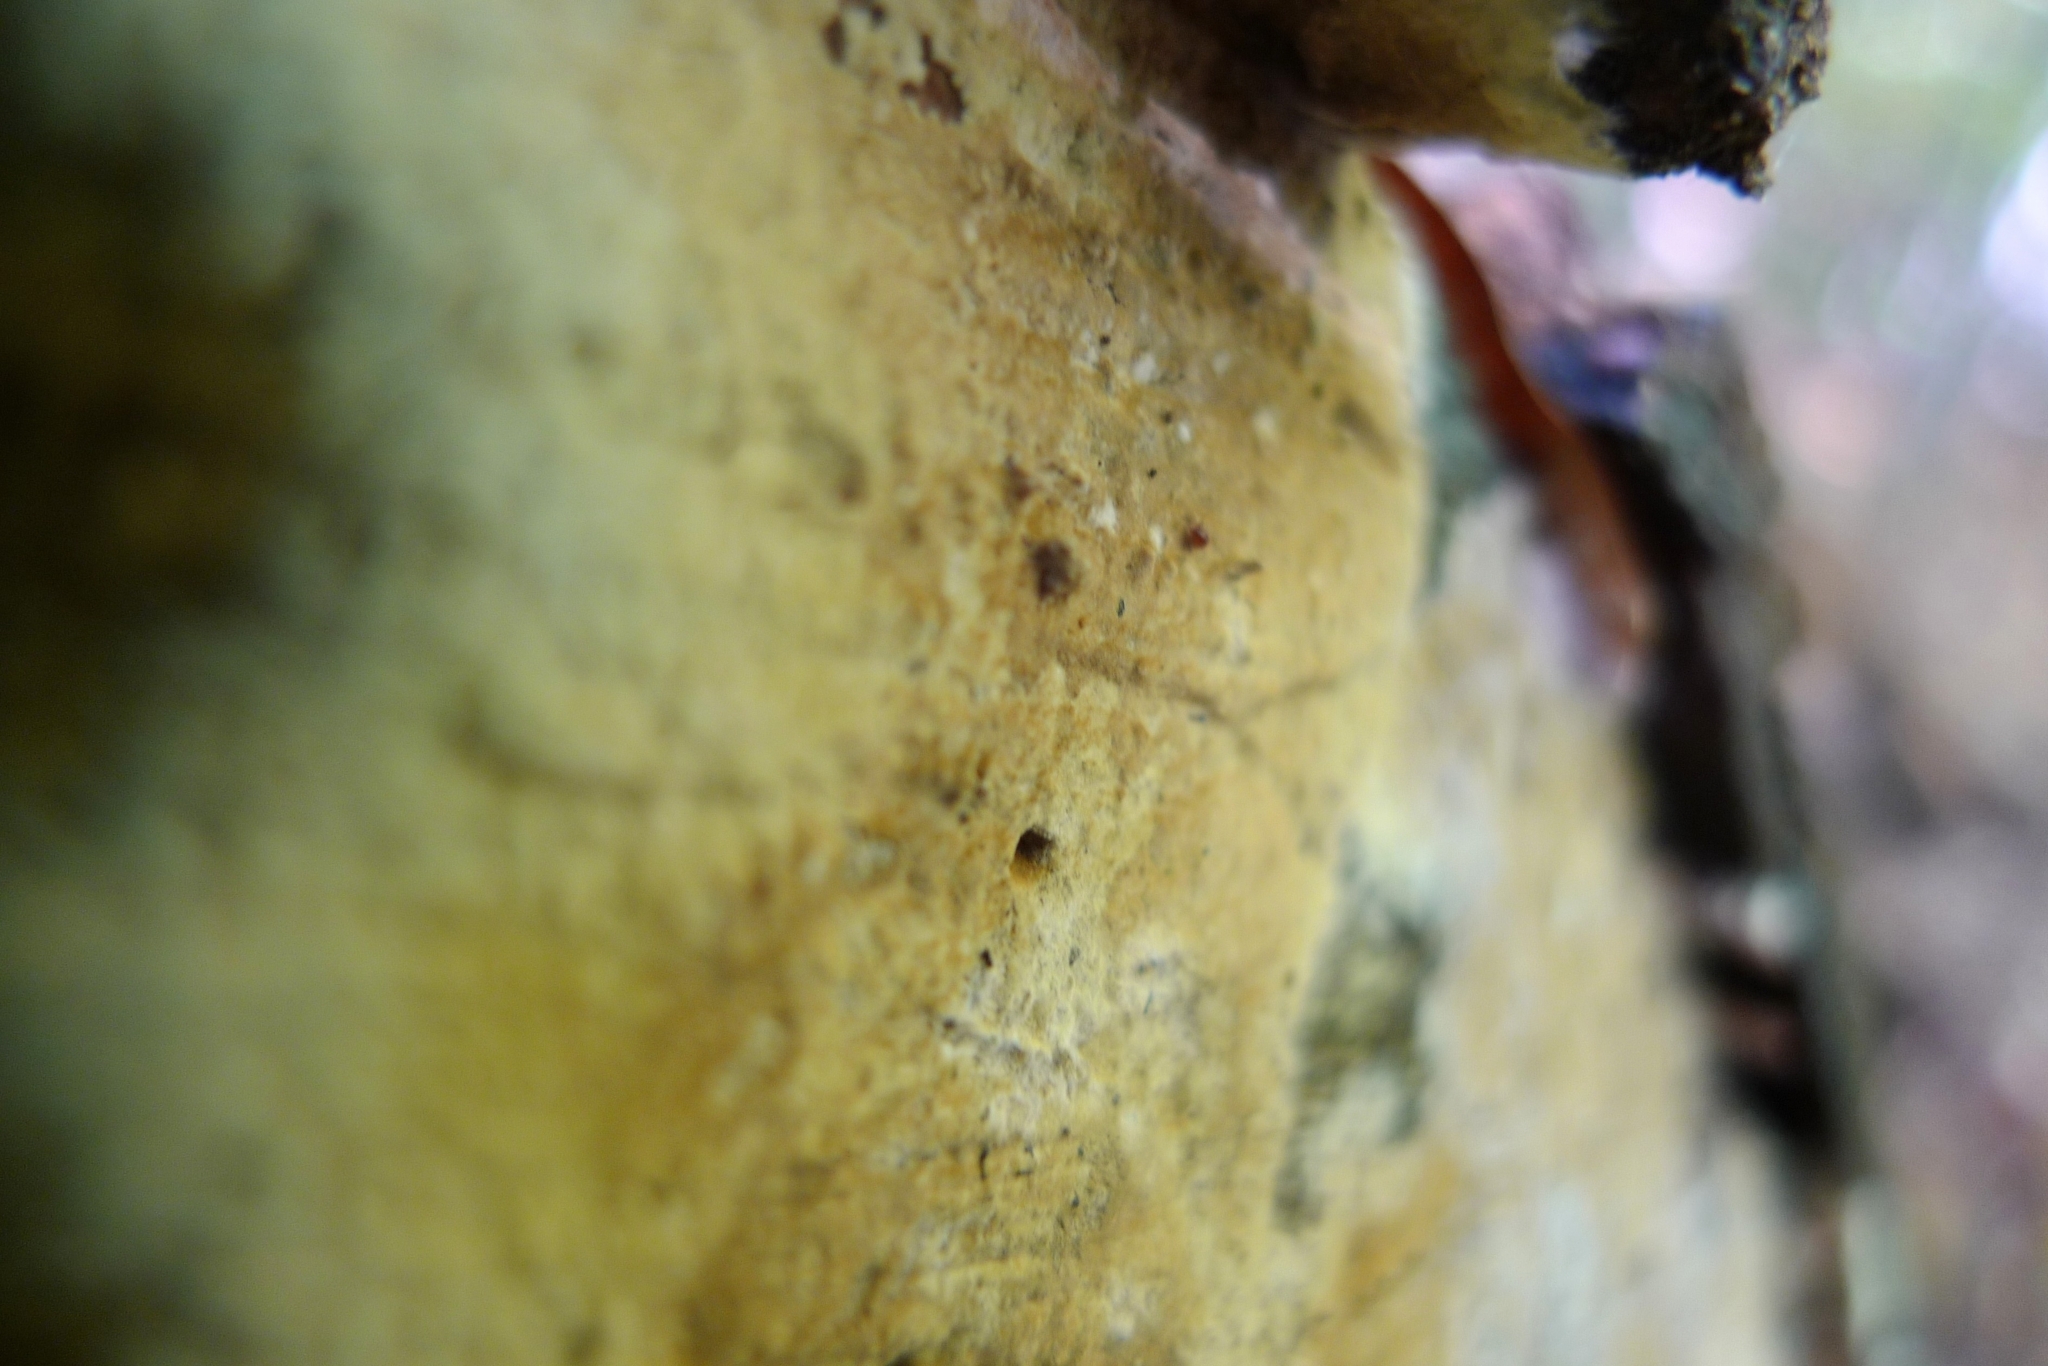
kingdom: Fungi
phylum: Basidiomycota
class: Agaricomycetes
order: Boletales
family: Coniophoraceae
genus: Coniophora
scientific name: Coniophora puteana
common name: Cellar fungus
